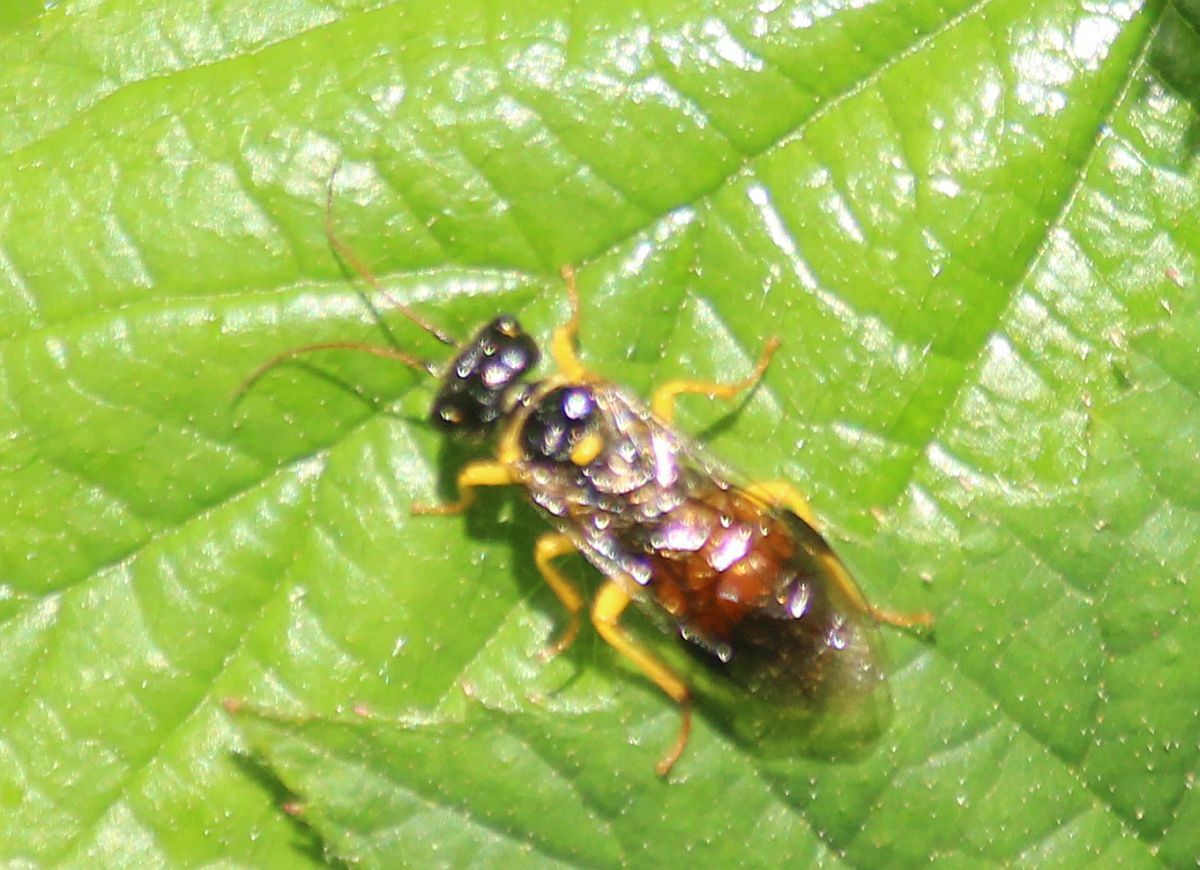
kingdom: Animalia
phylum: Arthropoda
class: Insecta
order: Hymenoptera
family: Pamphiliidae
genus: Pamphilius
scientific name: Pamphilius hortorum
